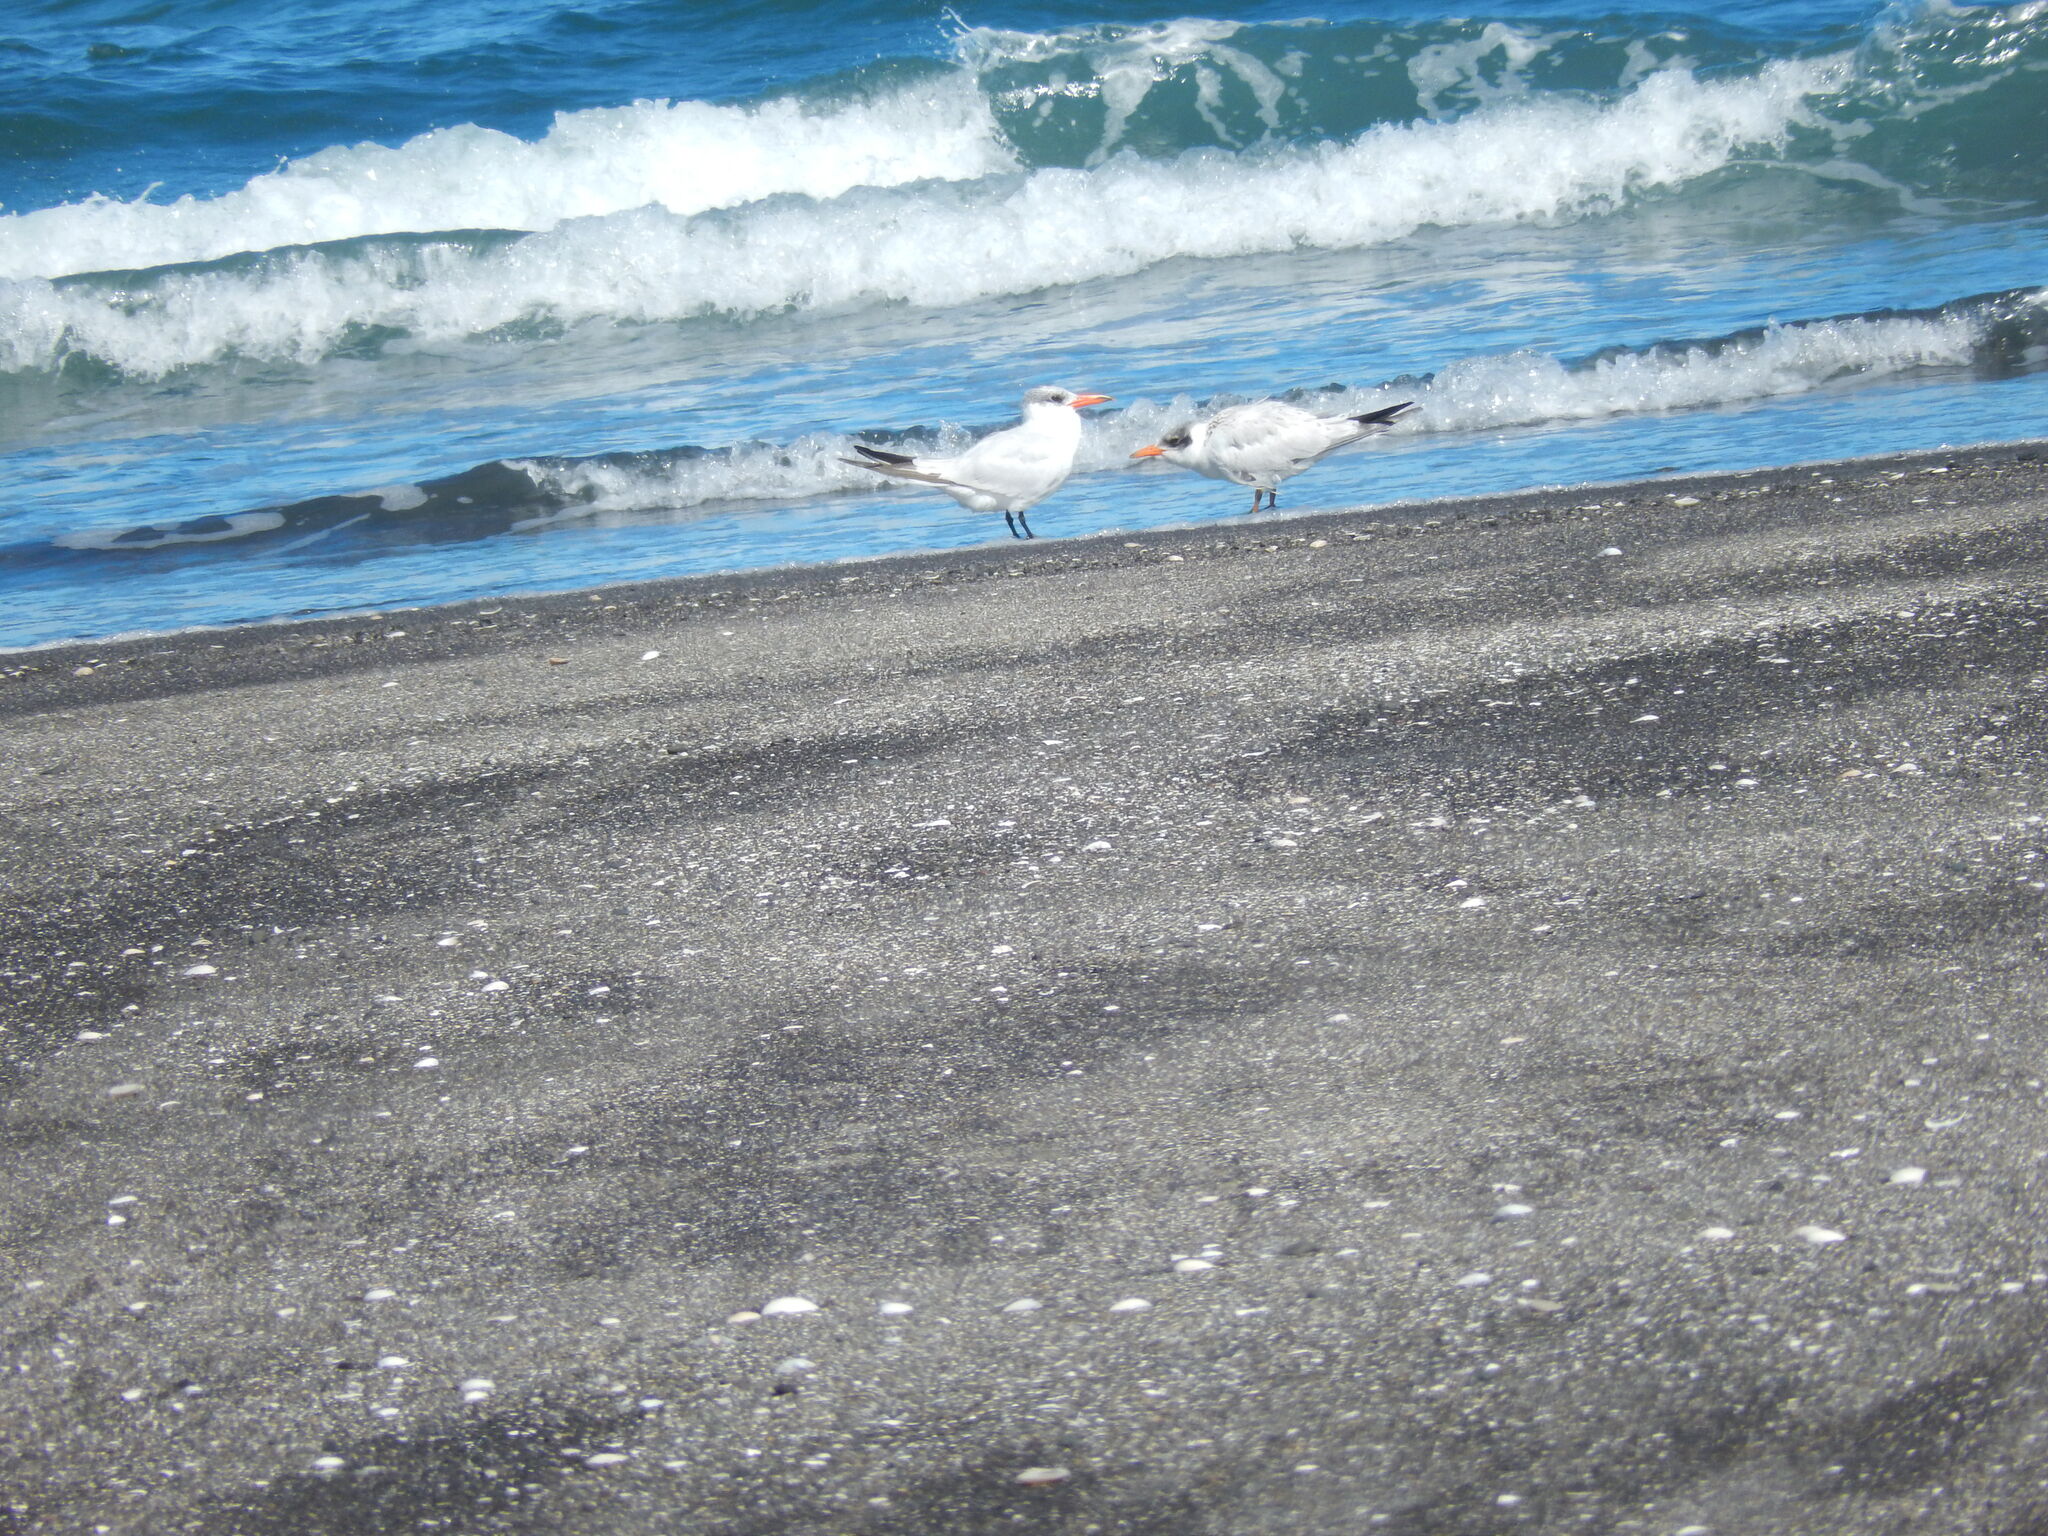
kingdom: Animalia
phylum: Chordata
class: Aves
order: Charadriiformes
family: Laridae
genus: Hydroprogne
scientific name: Hydroprogne caspia
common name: Caspian tern
